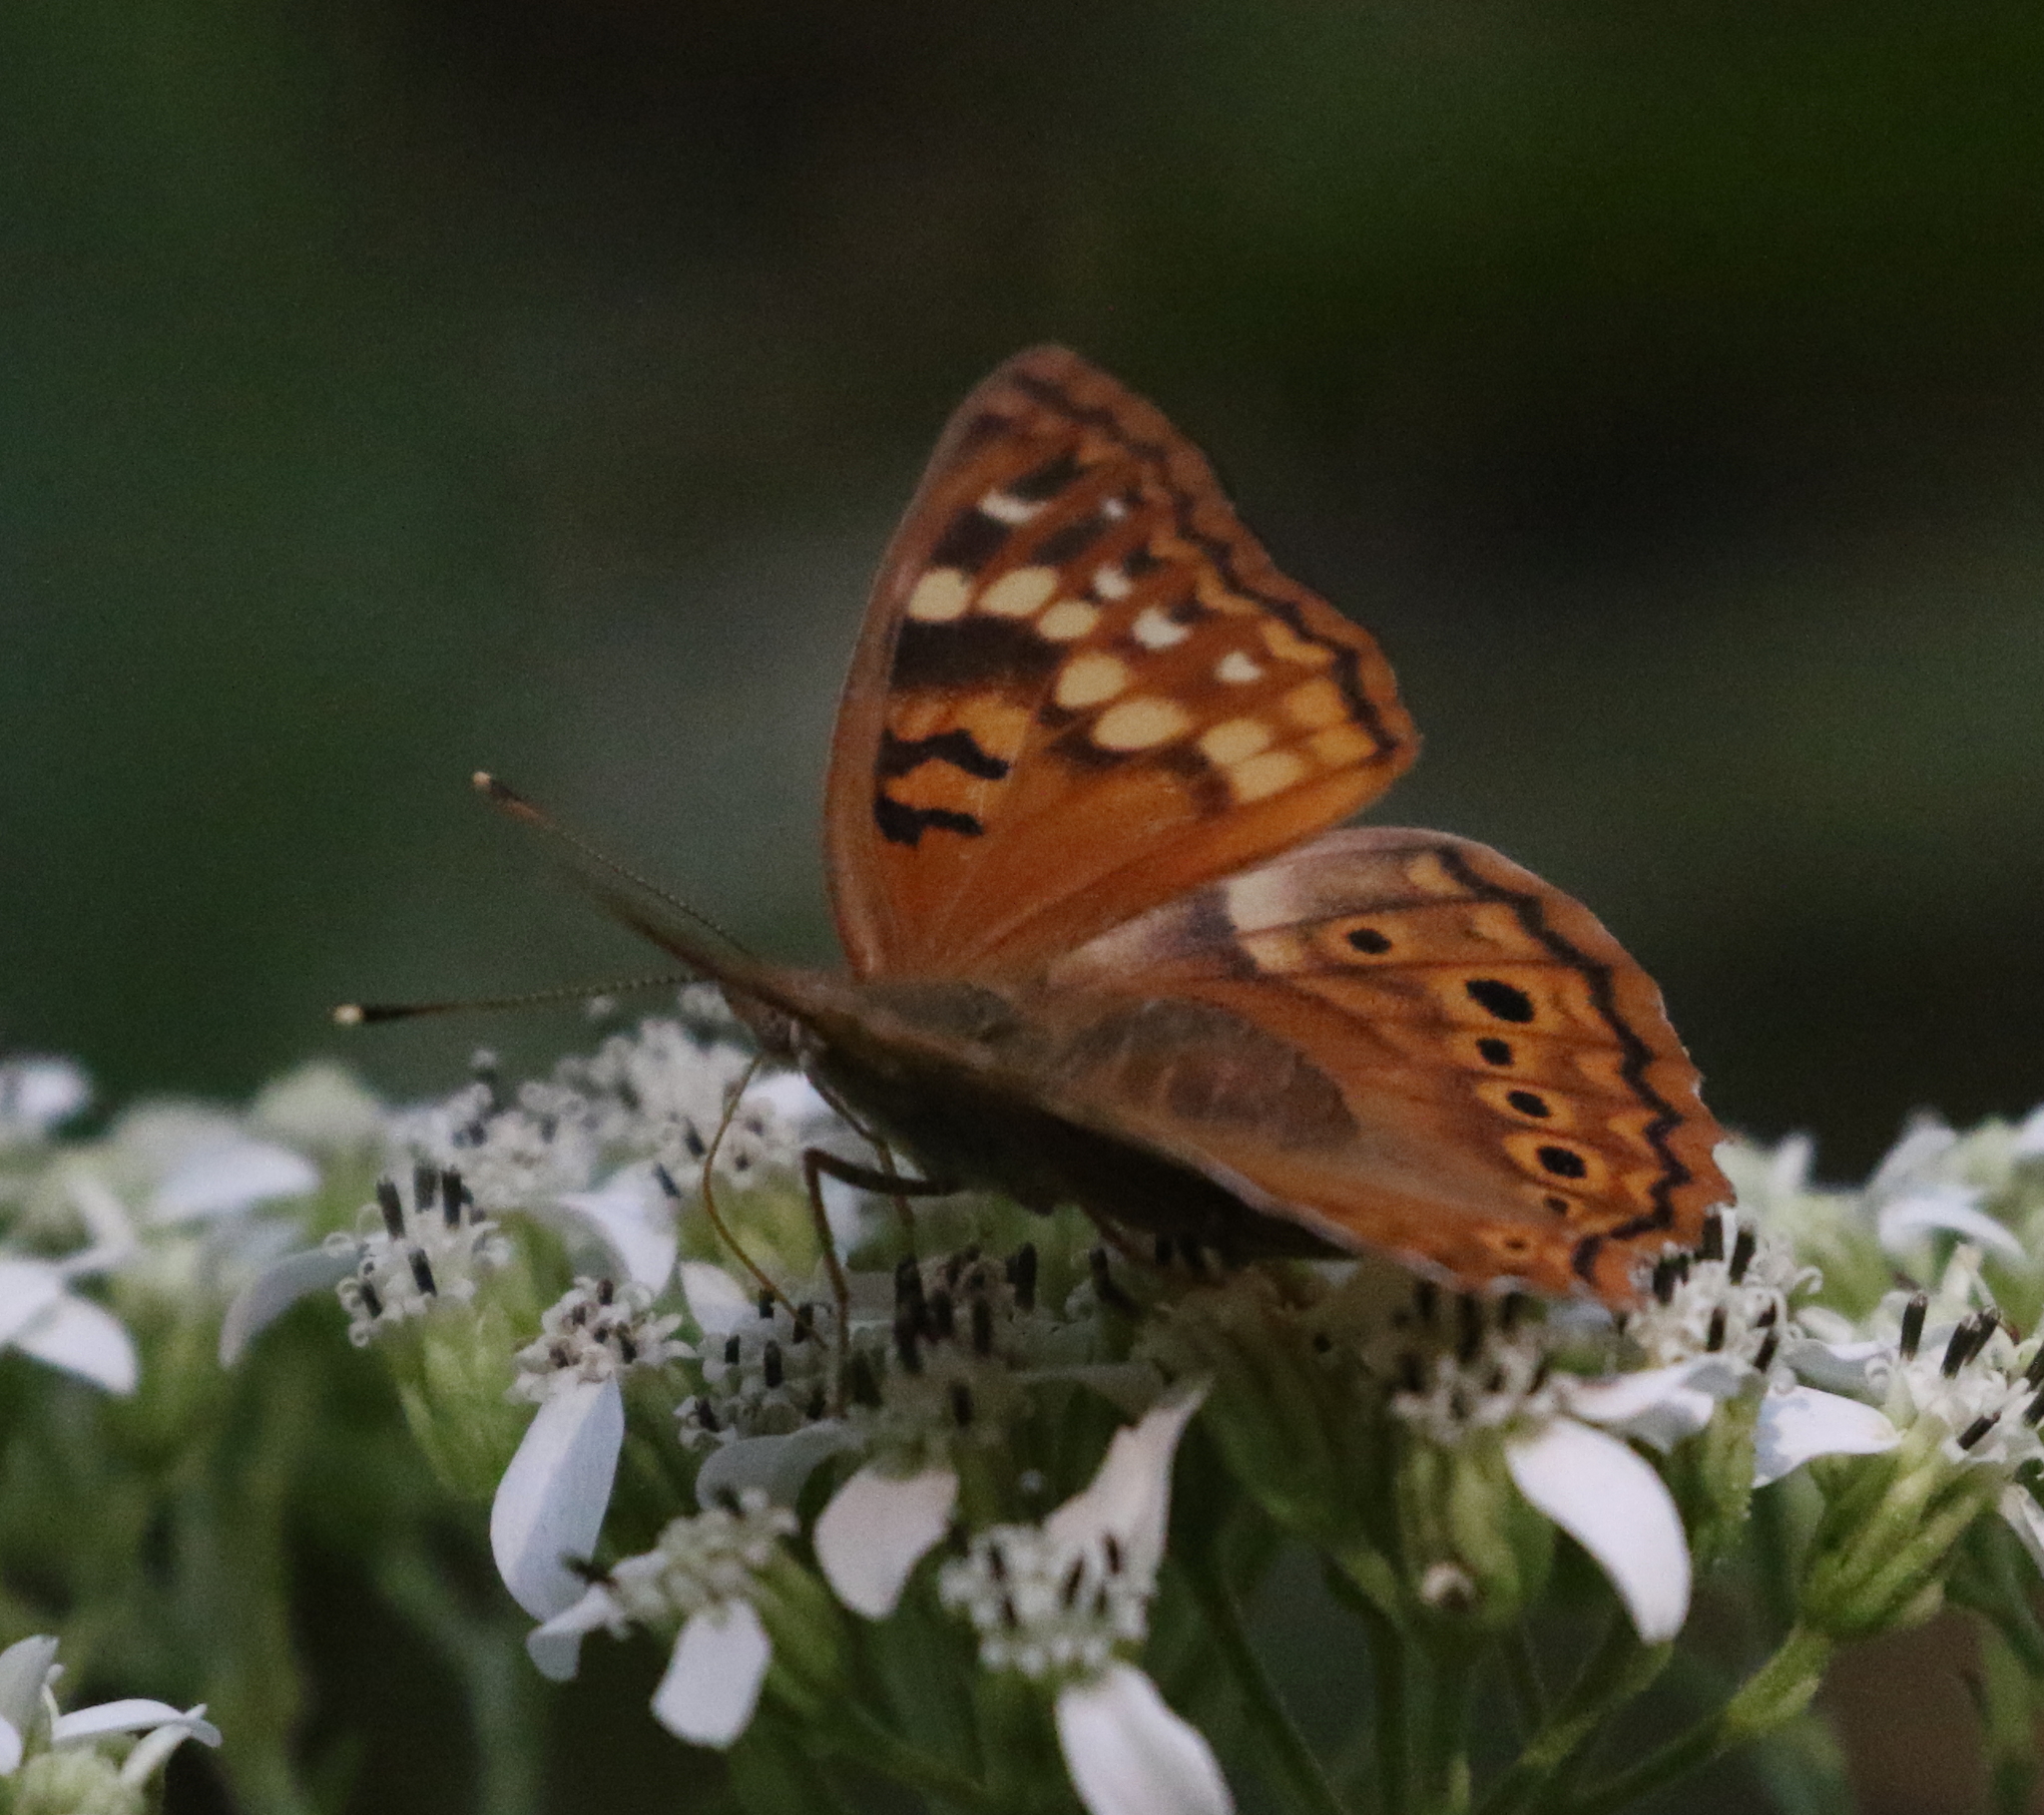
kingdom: Animalia
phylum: Arthropoda
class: Insecta
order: Lepidoptera
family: Nymphalidae
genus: Asterocampa
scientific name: Asterocampa clyton
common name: Tawny emperor
